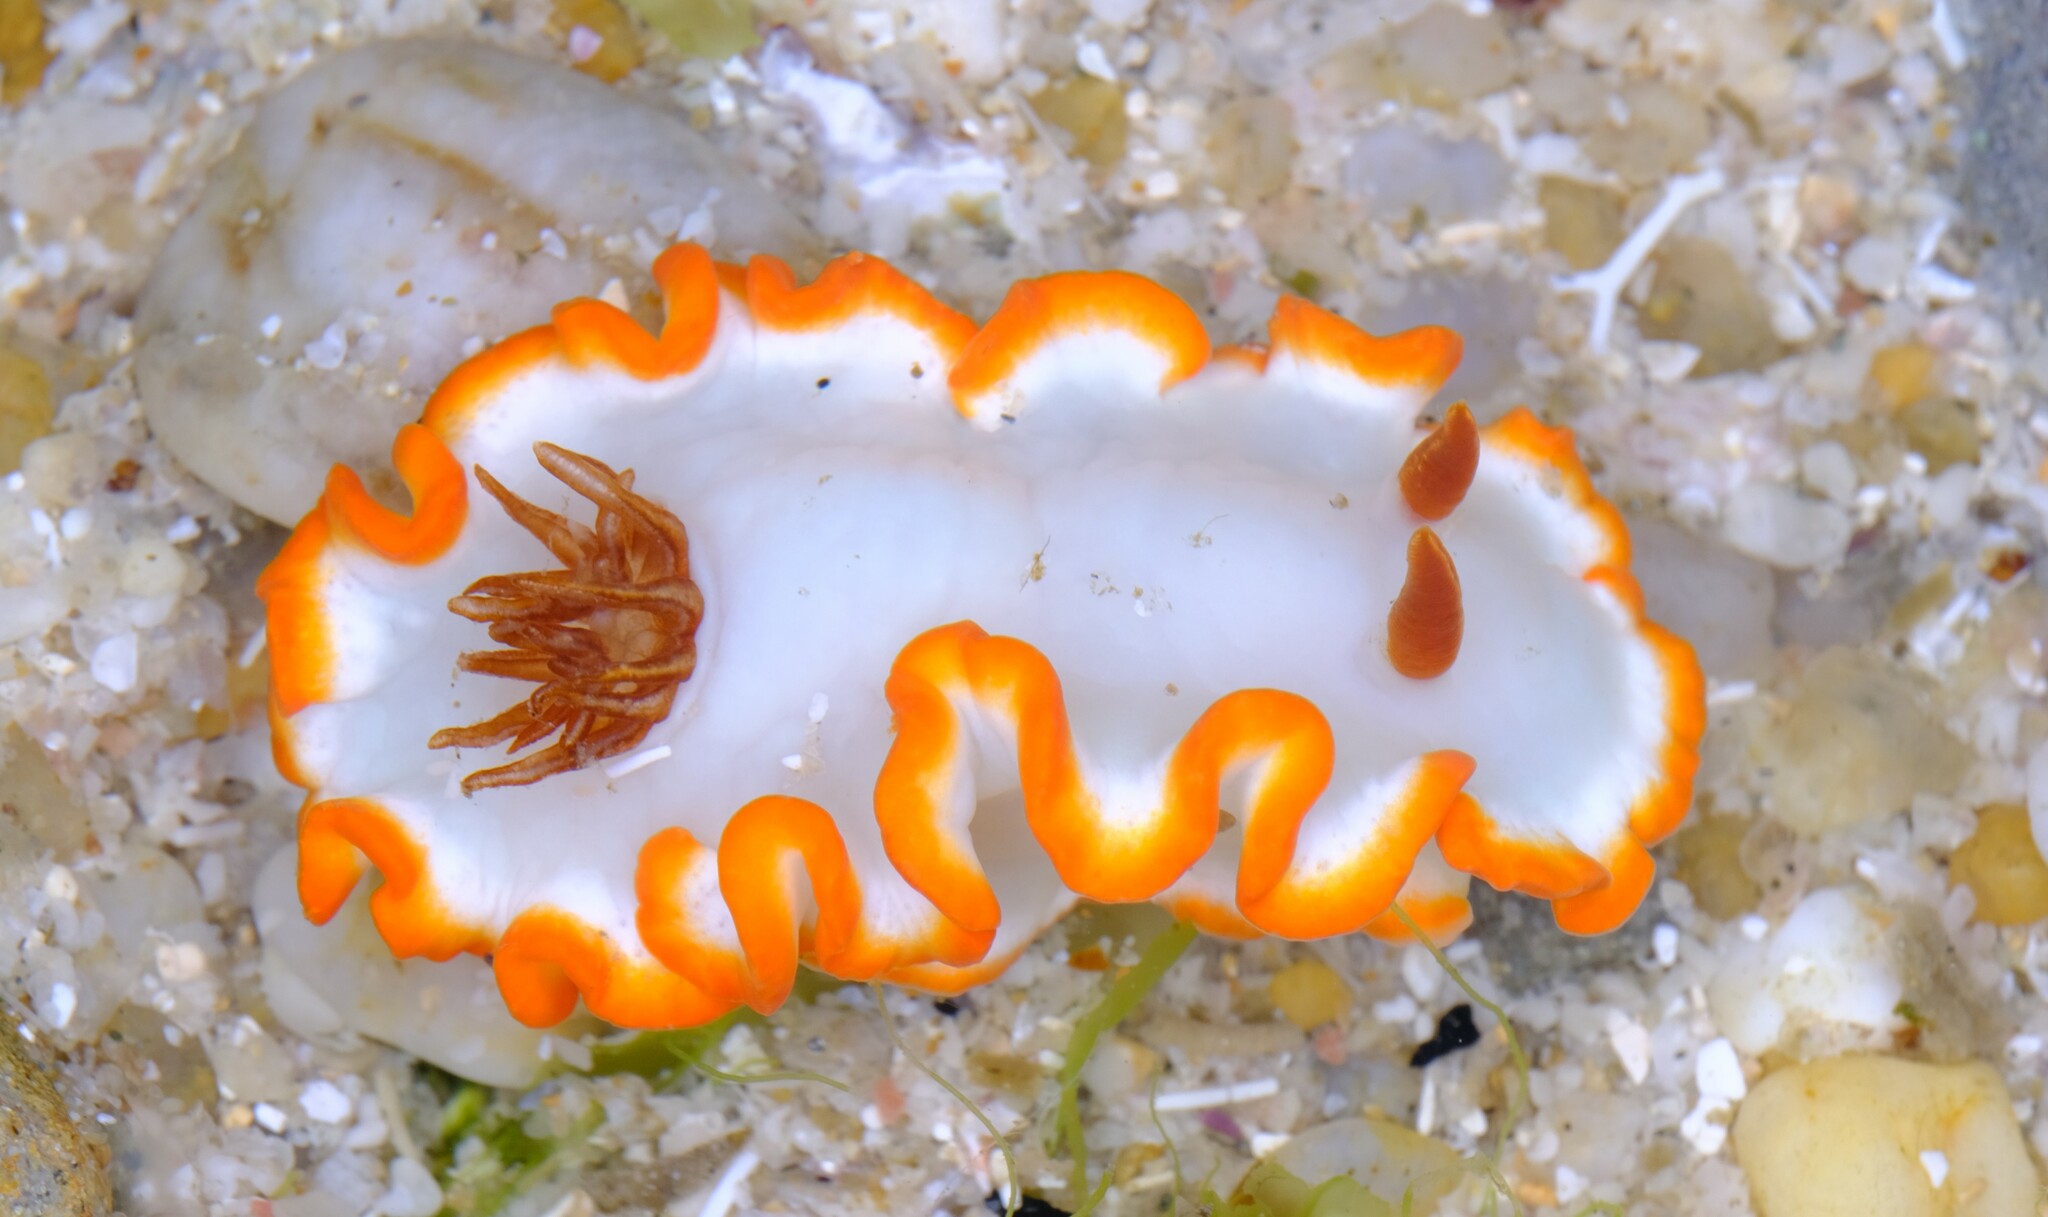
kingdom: Animalia
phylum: Mollusca
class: Gastropoda
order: Nudibranchia
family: Chromodorididae
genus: Ardeadoris
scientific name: Ardeadoris averni
